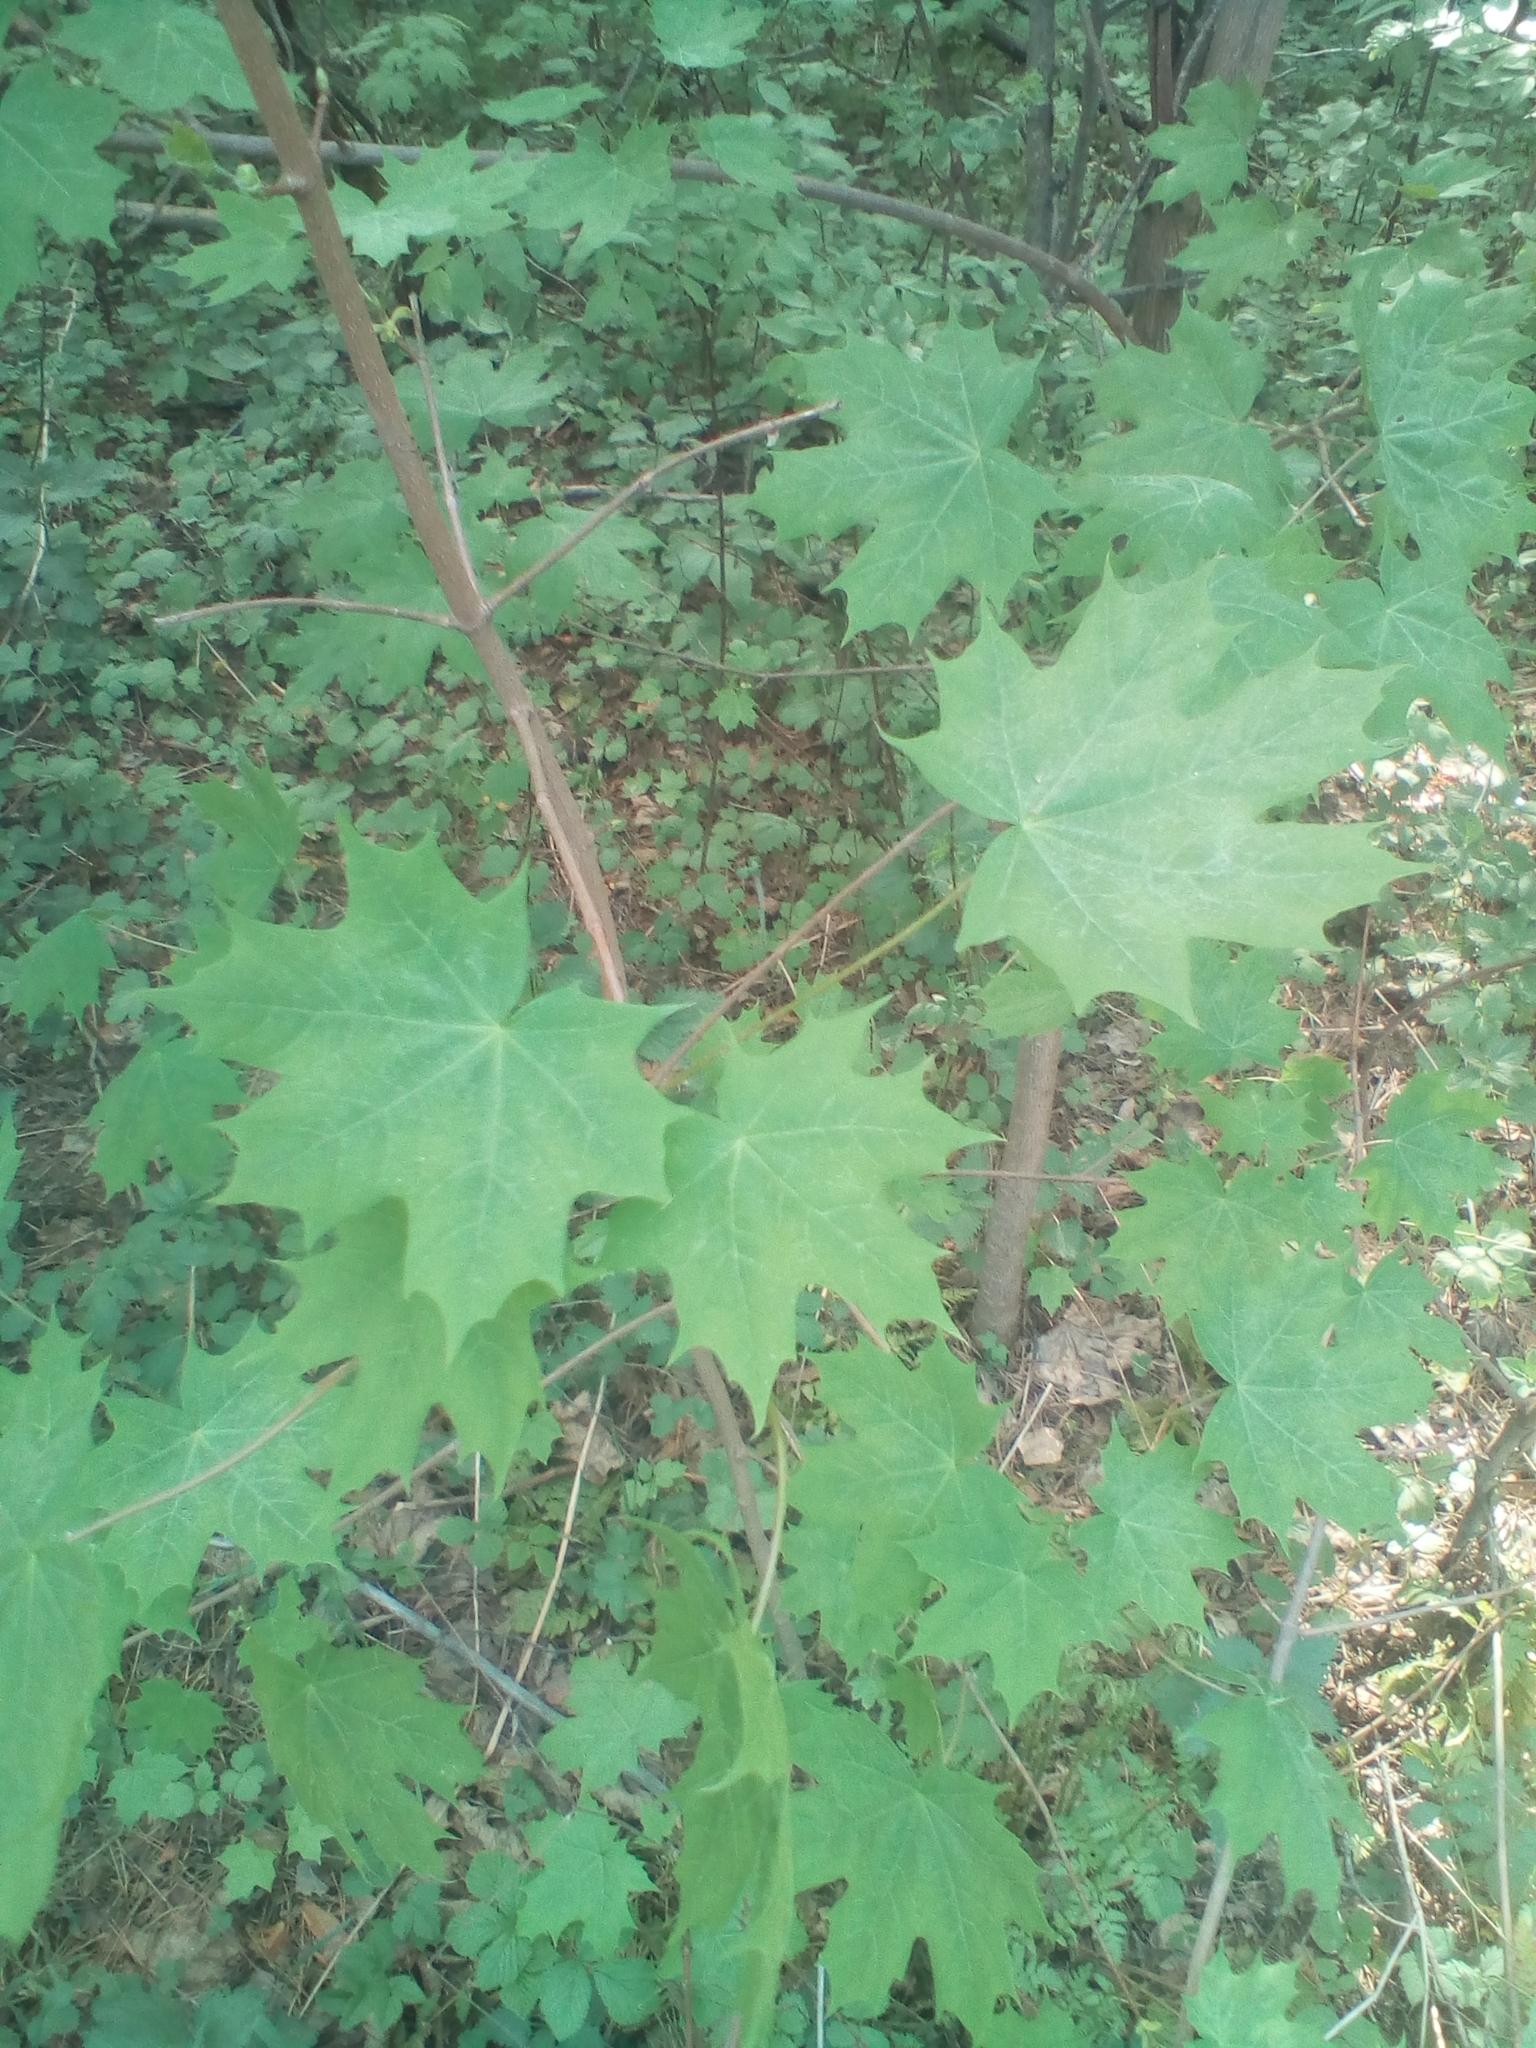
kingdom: Plantae
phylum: Tracheophyta
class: Magnoliopsida
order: Sapindales
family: Sapindaceae
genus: Acer
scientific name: Acer platanoides
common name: Norway maple
